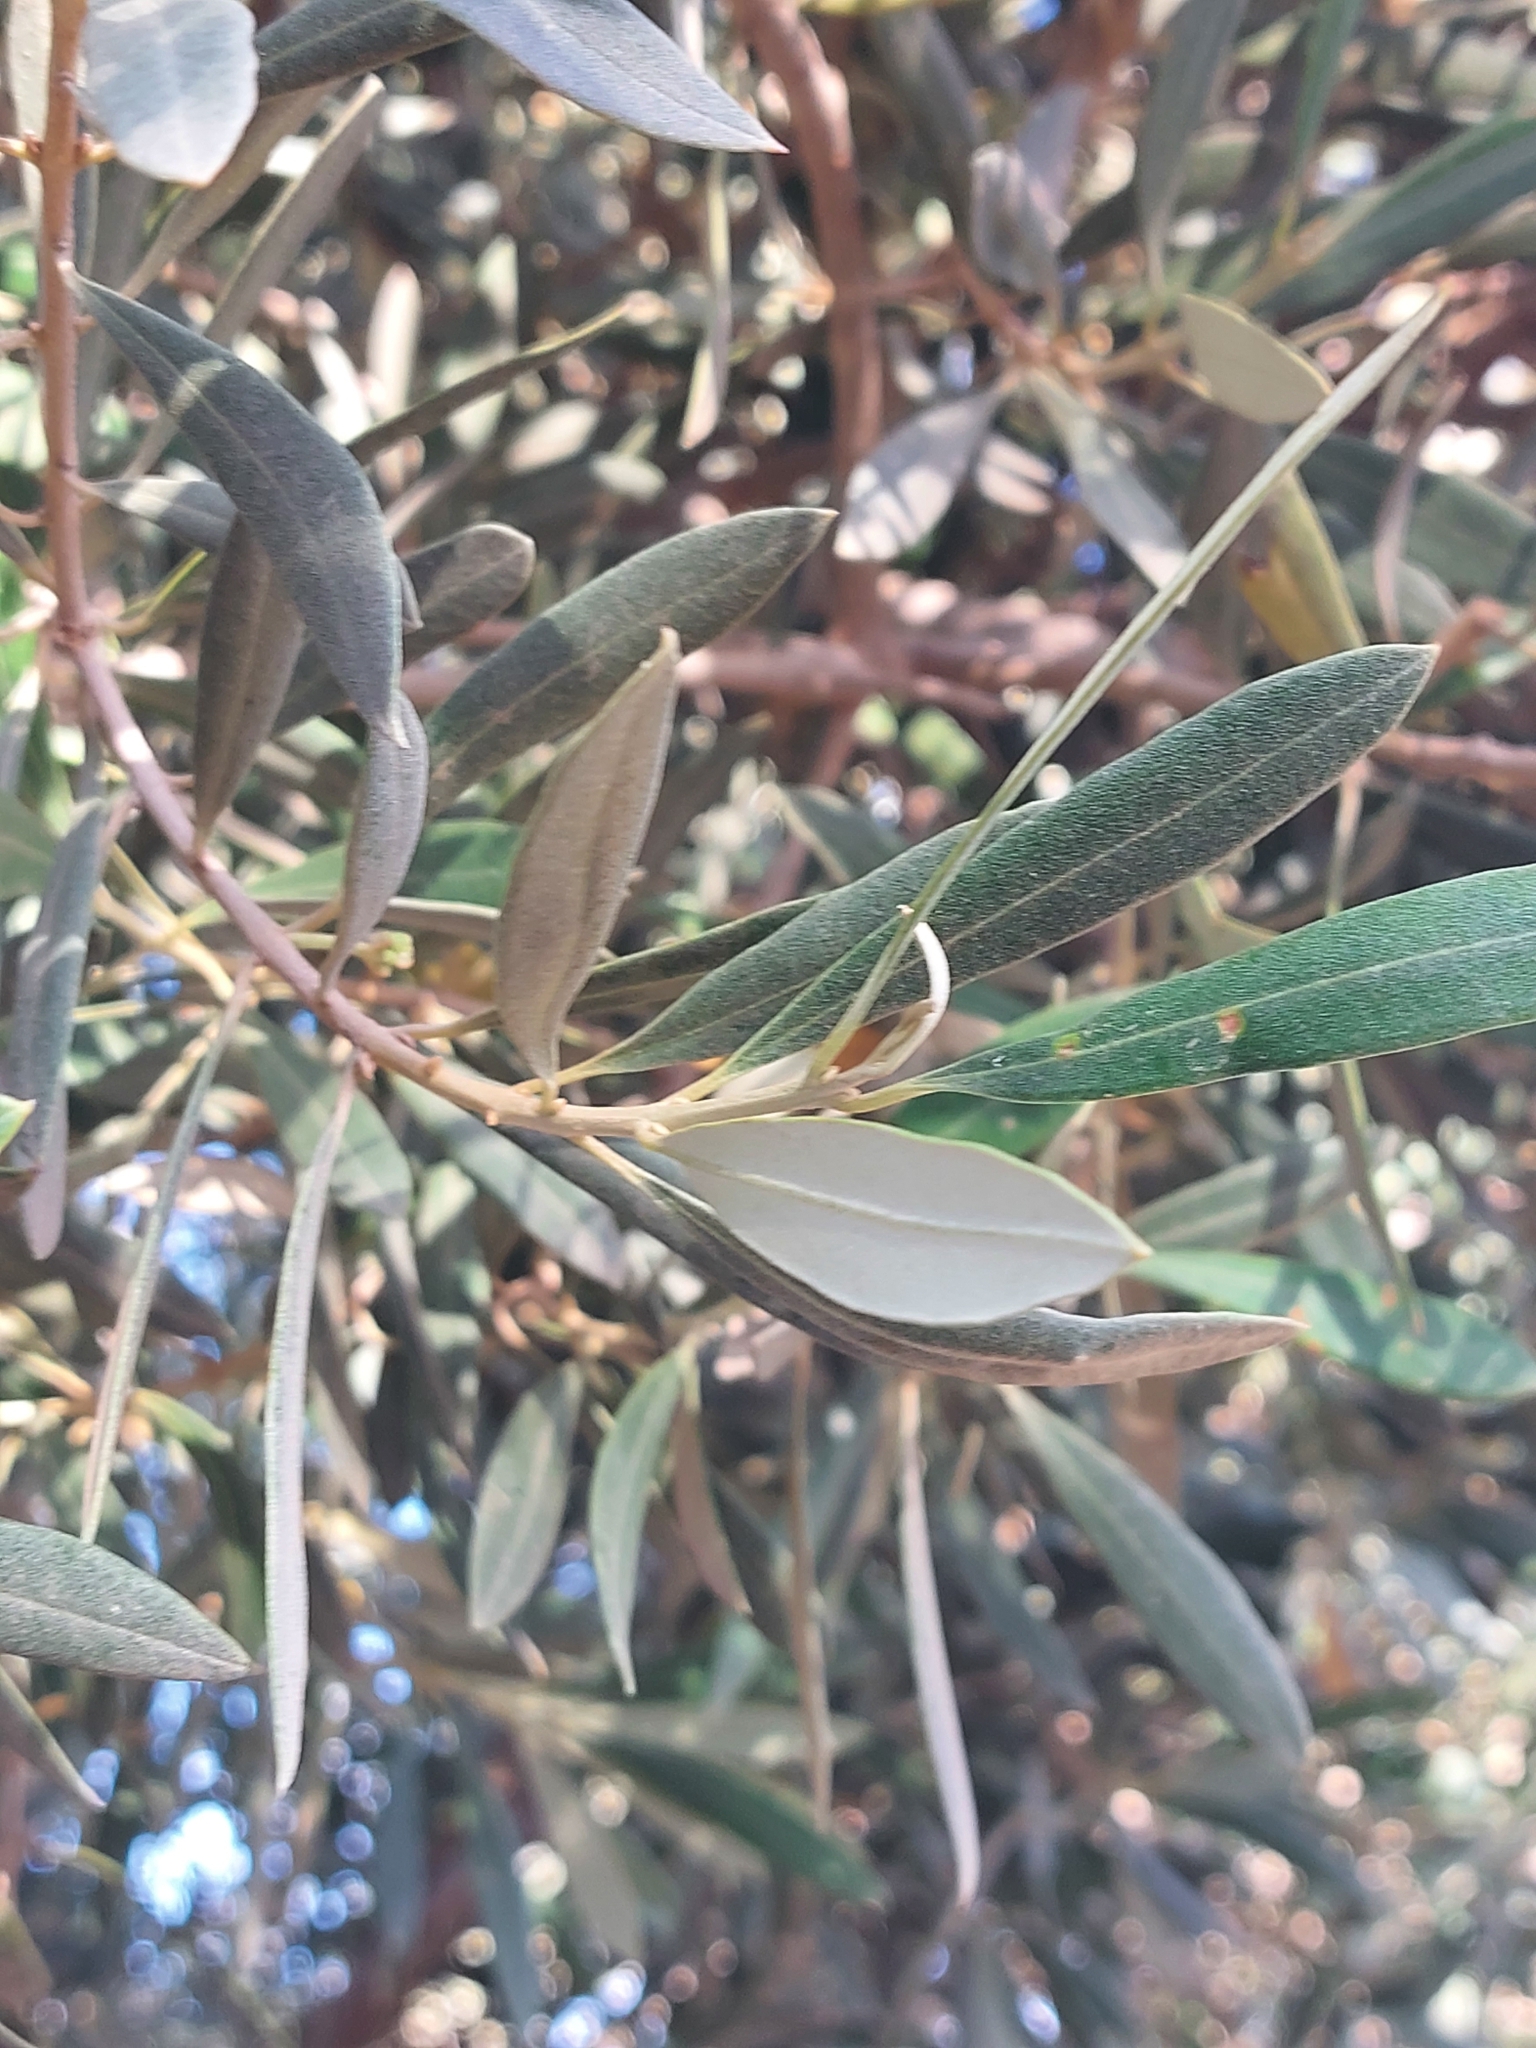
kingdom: Plantae
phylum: Tracheophyta
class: Magnoliopsida
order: Lamiales
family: Oleaceae
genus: Olea
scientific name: Olea europaea
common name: Olive
